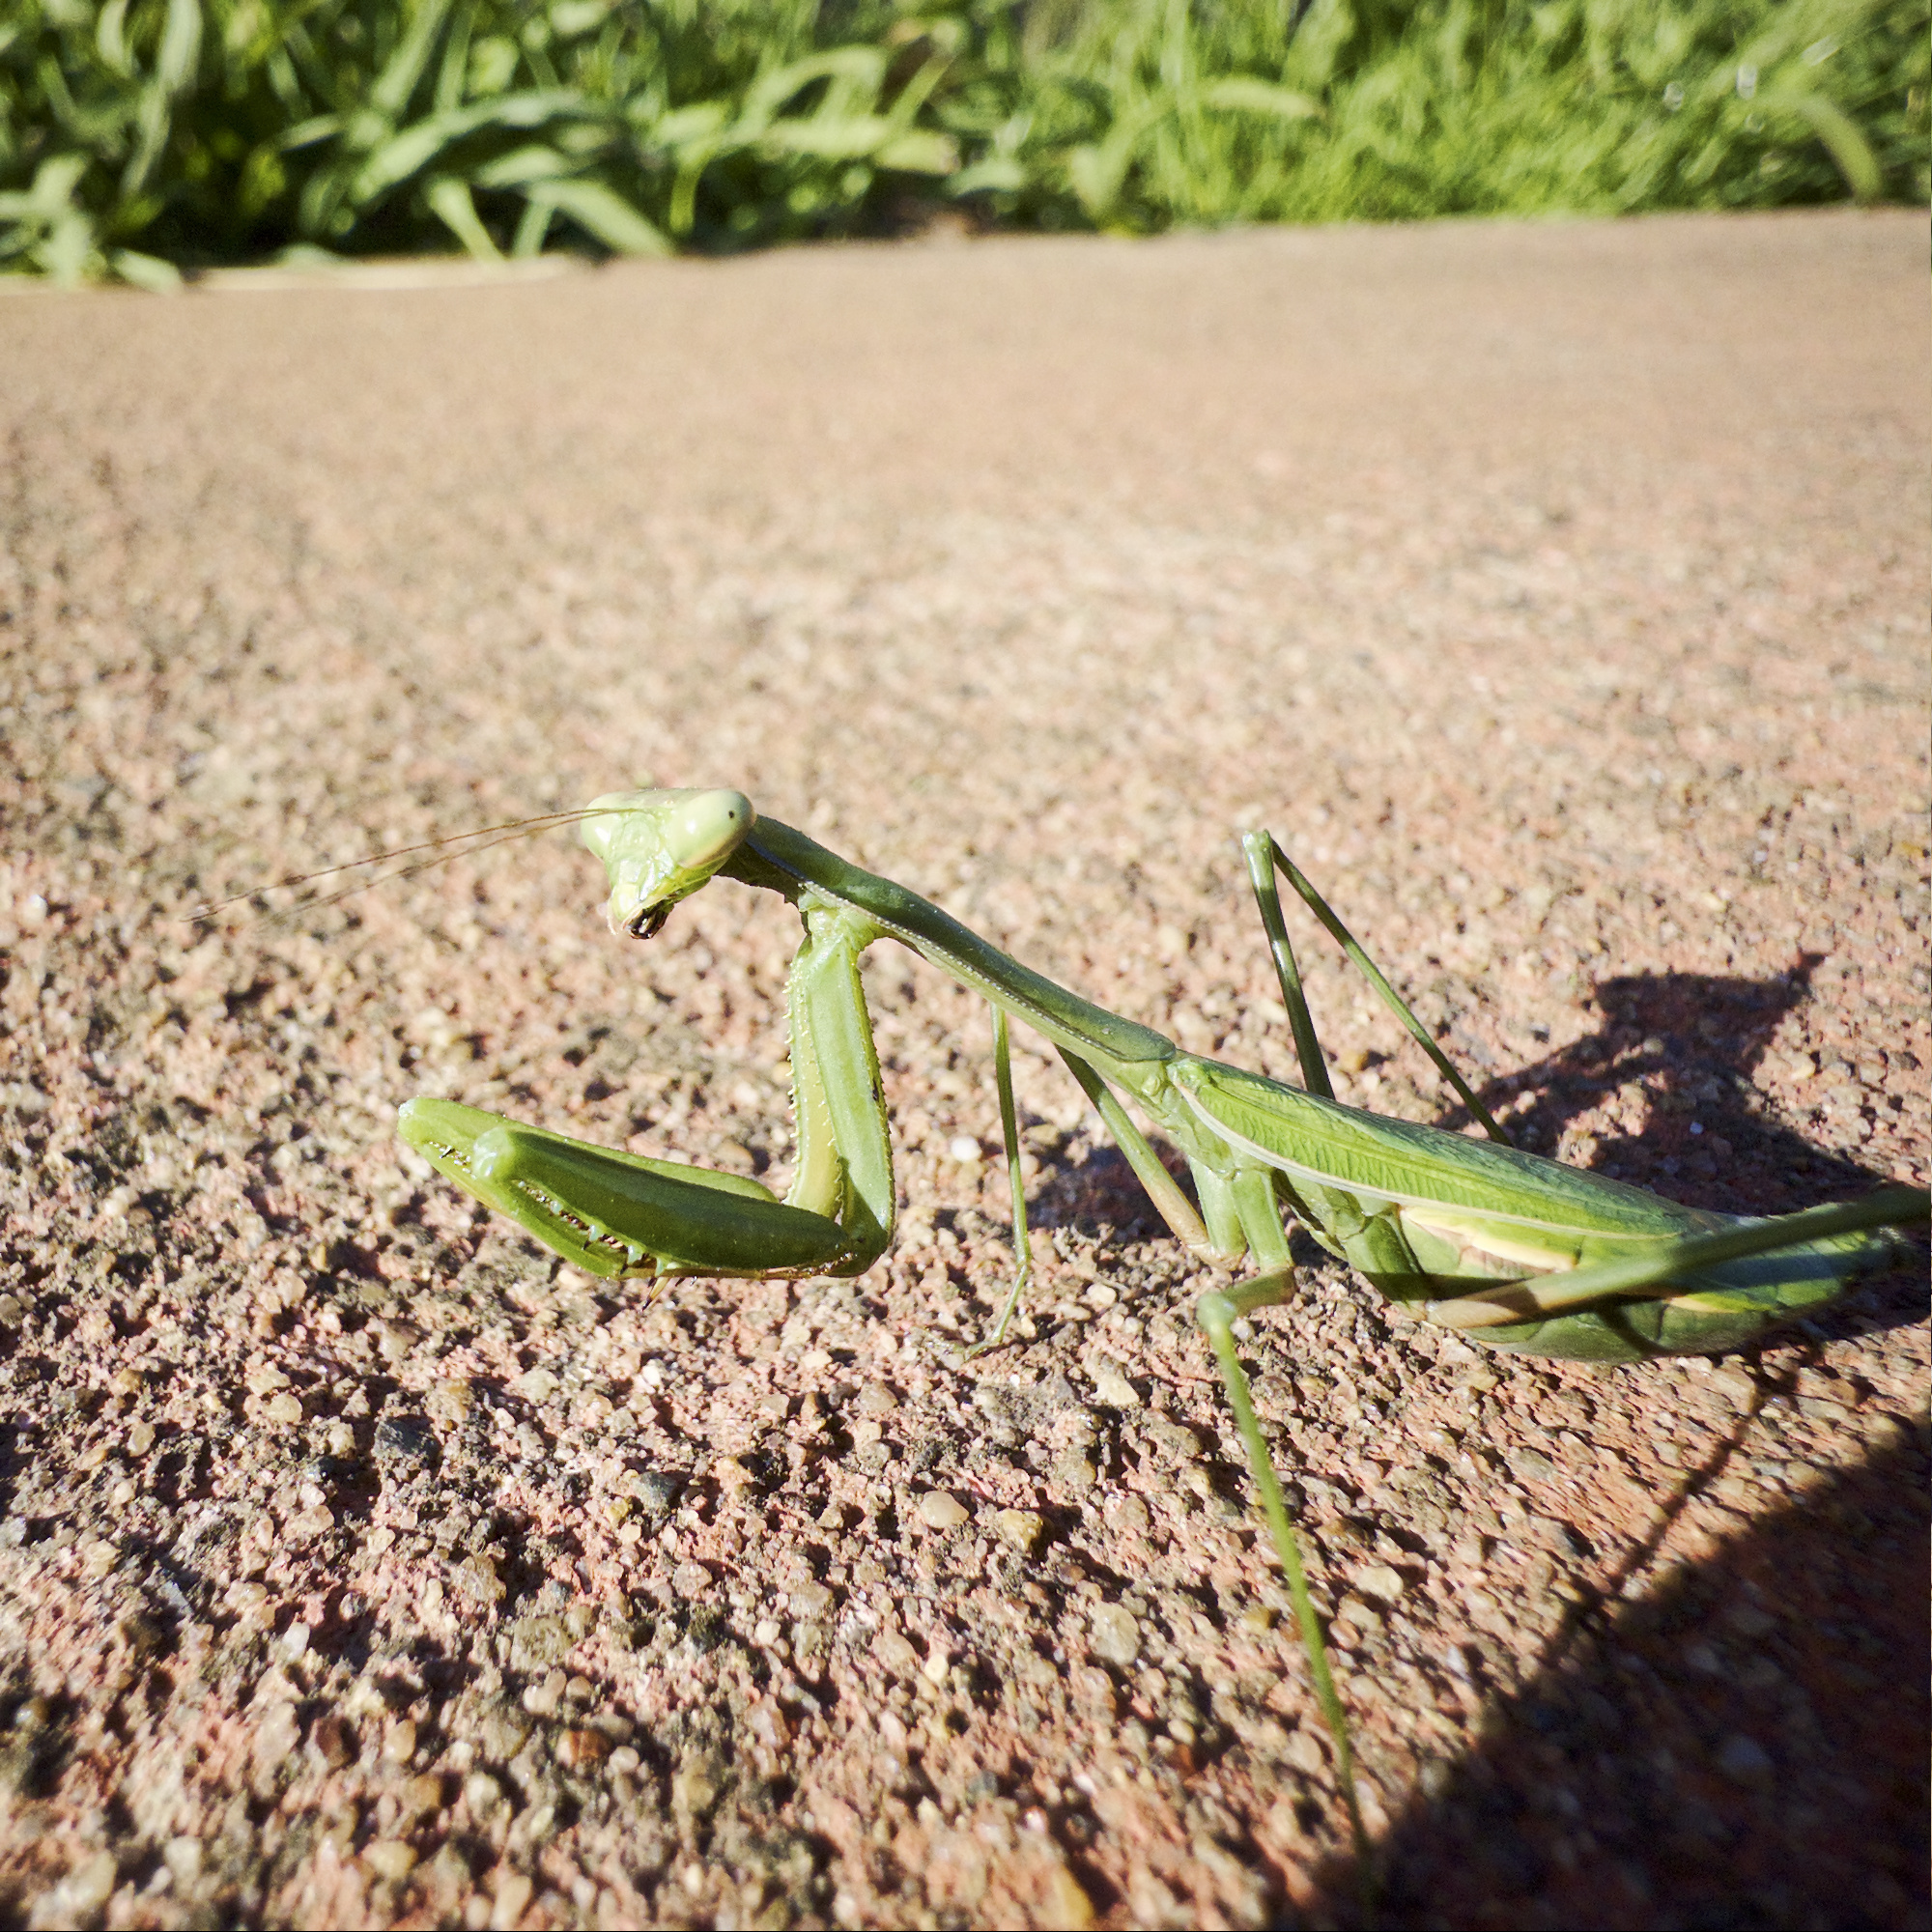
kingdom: Animalia
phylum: Arthropoda
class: Insecta
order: Mantodea
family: Mantidae
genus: Pseudomantis
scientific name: Pseudomantis albofimbriata
